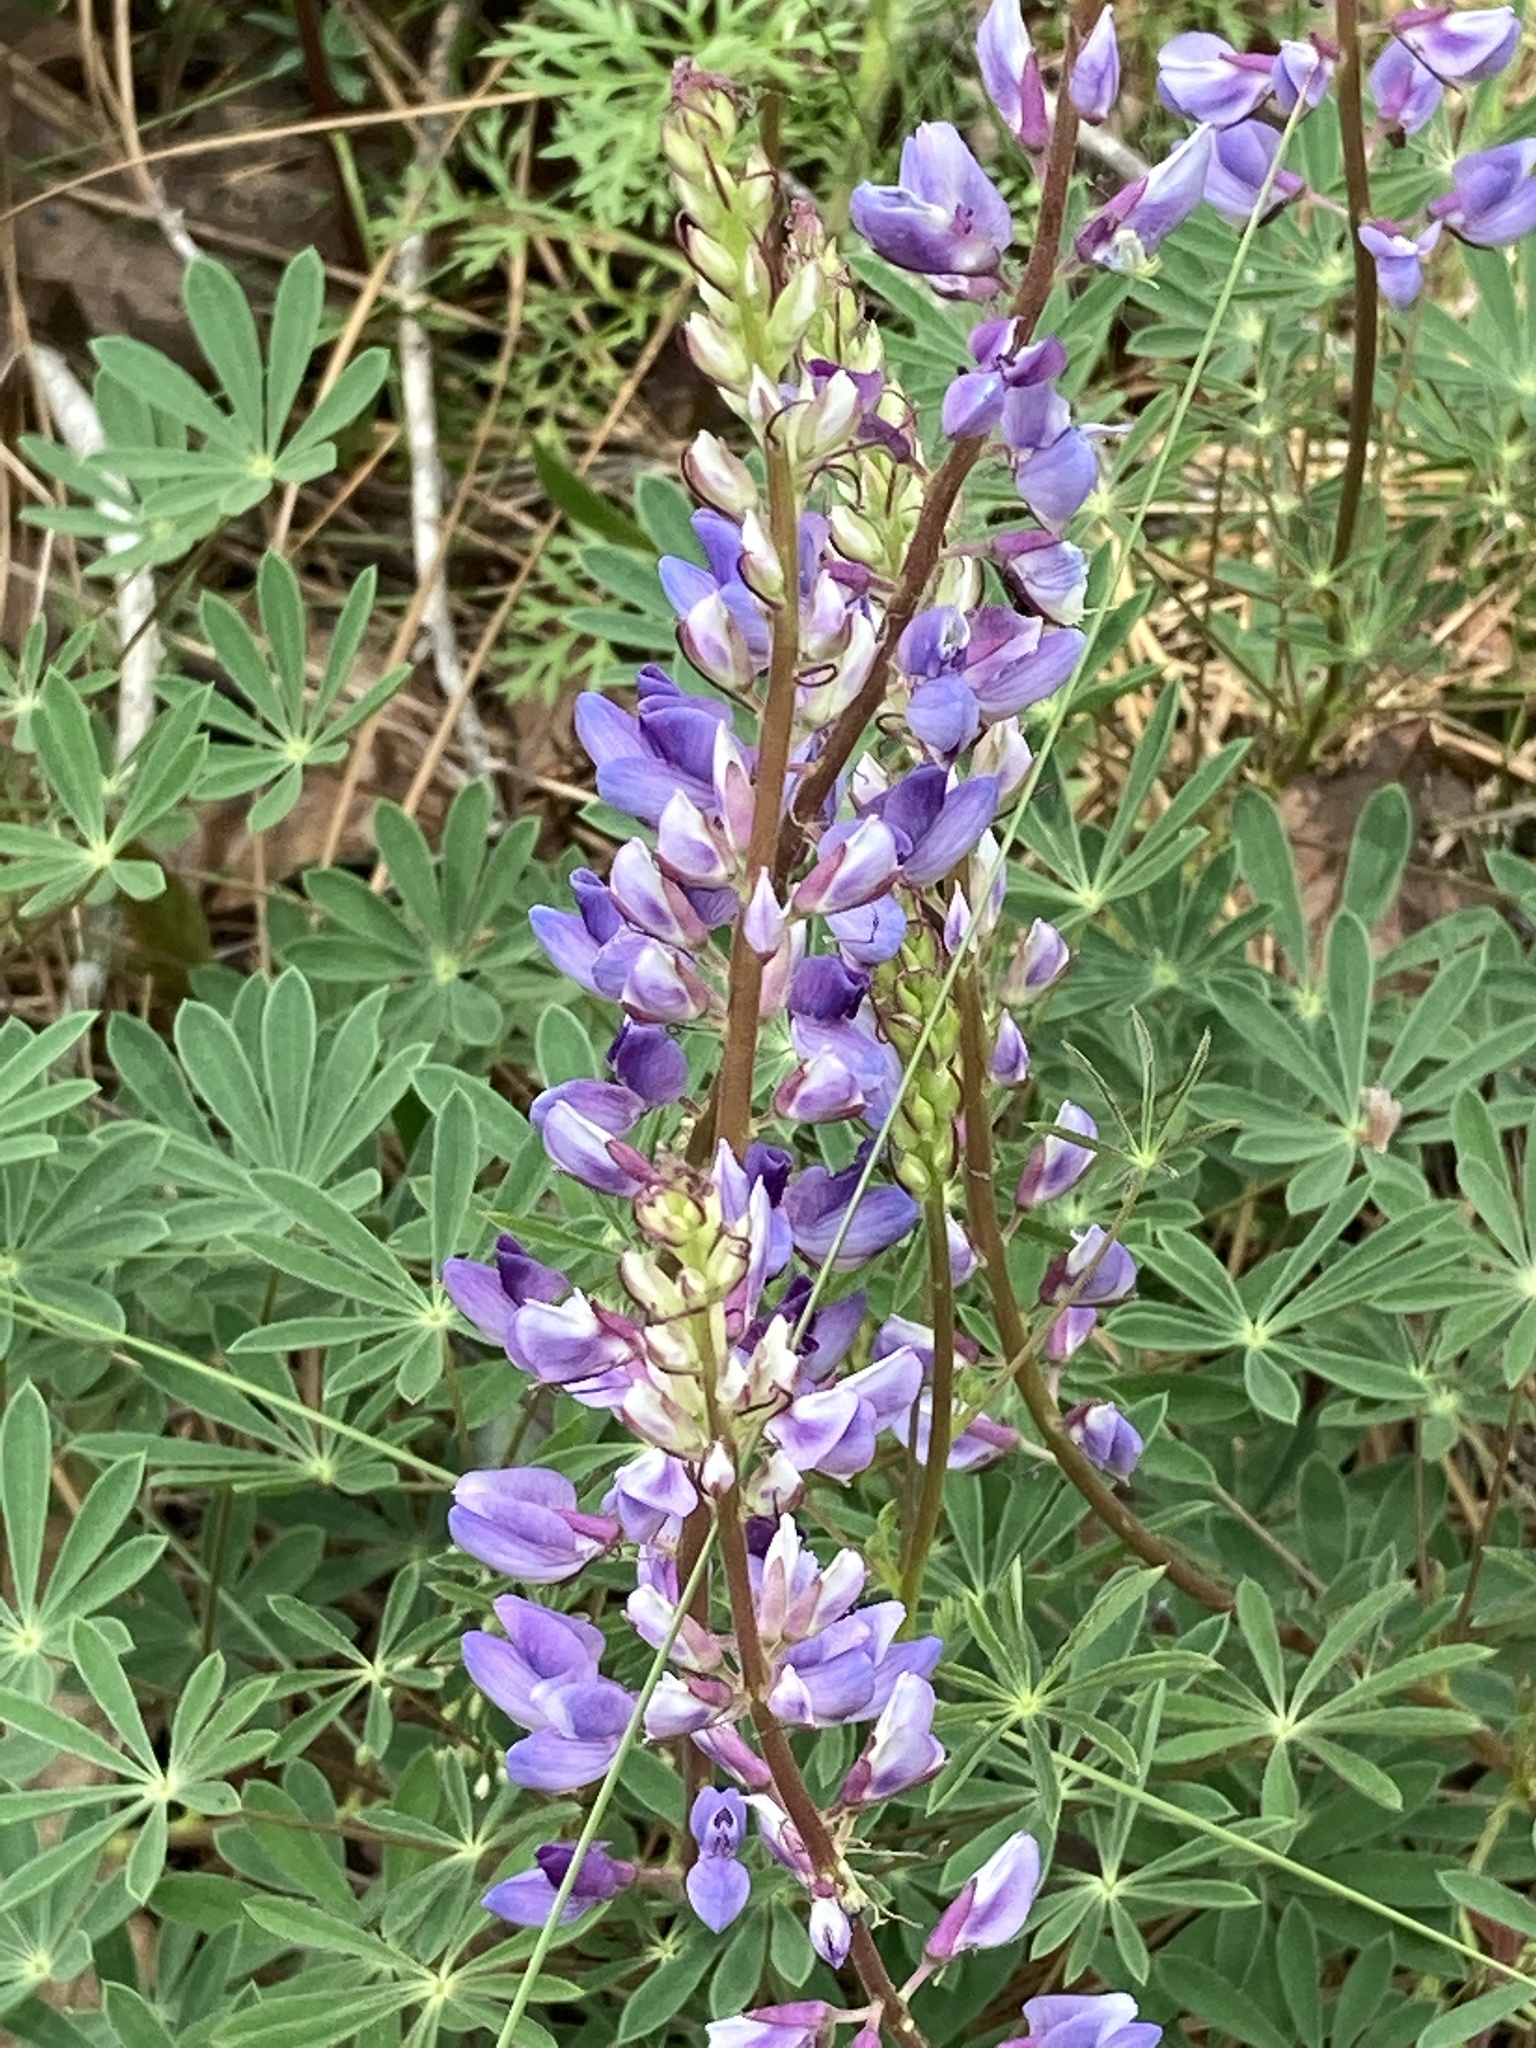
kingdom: Plantae
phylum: Tracheophyta
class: Magnoliopsida
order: Fabales
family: Fabaceae
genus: Lupinus
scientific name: Lupinus perennis
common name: Sundial lupine
